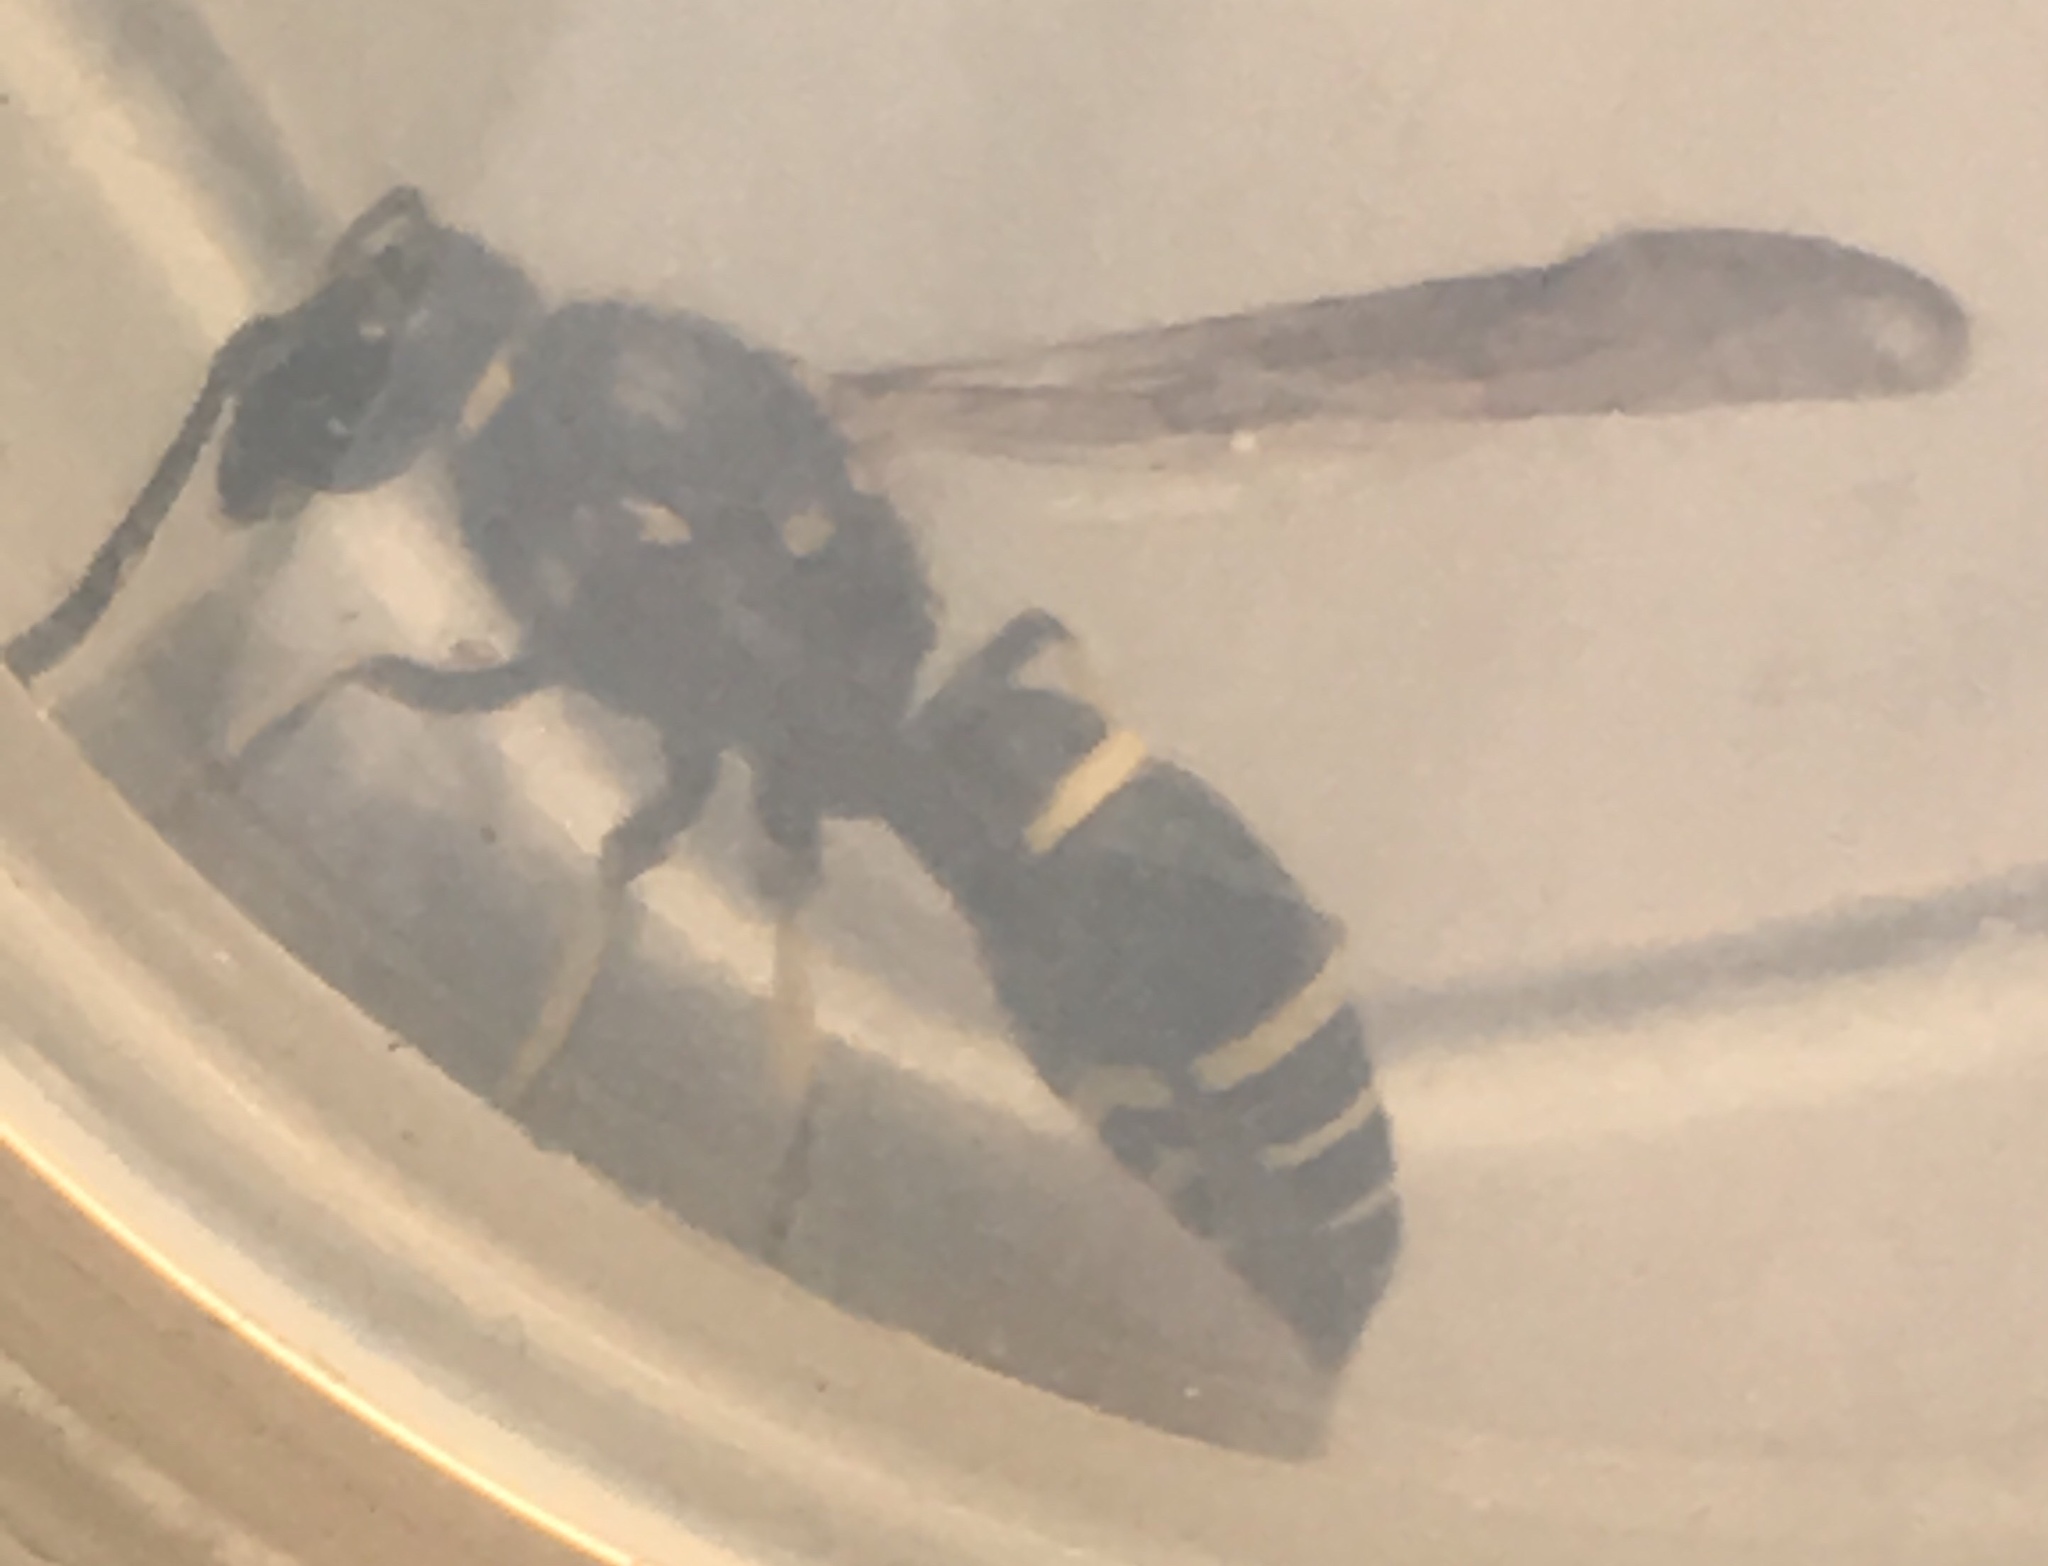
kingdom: Animalia
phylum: Arthropoda
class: Insecta
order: Hymenoptera
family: Vespidae
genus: Ancistrocerus
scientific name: Ancistrocerus
